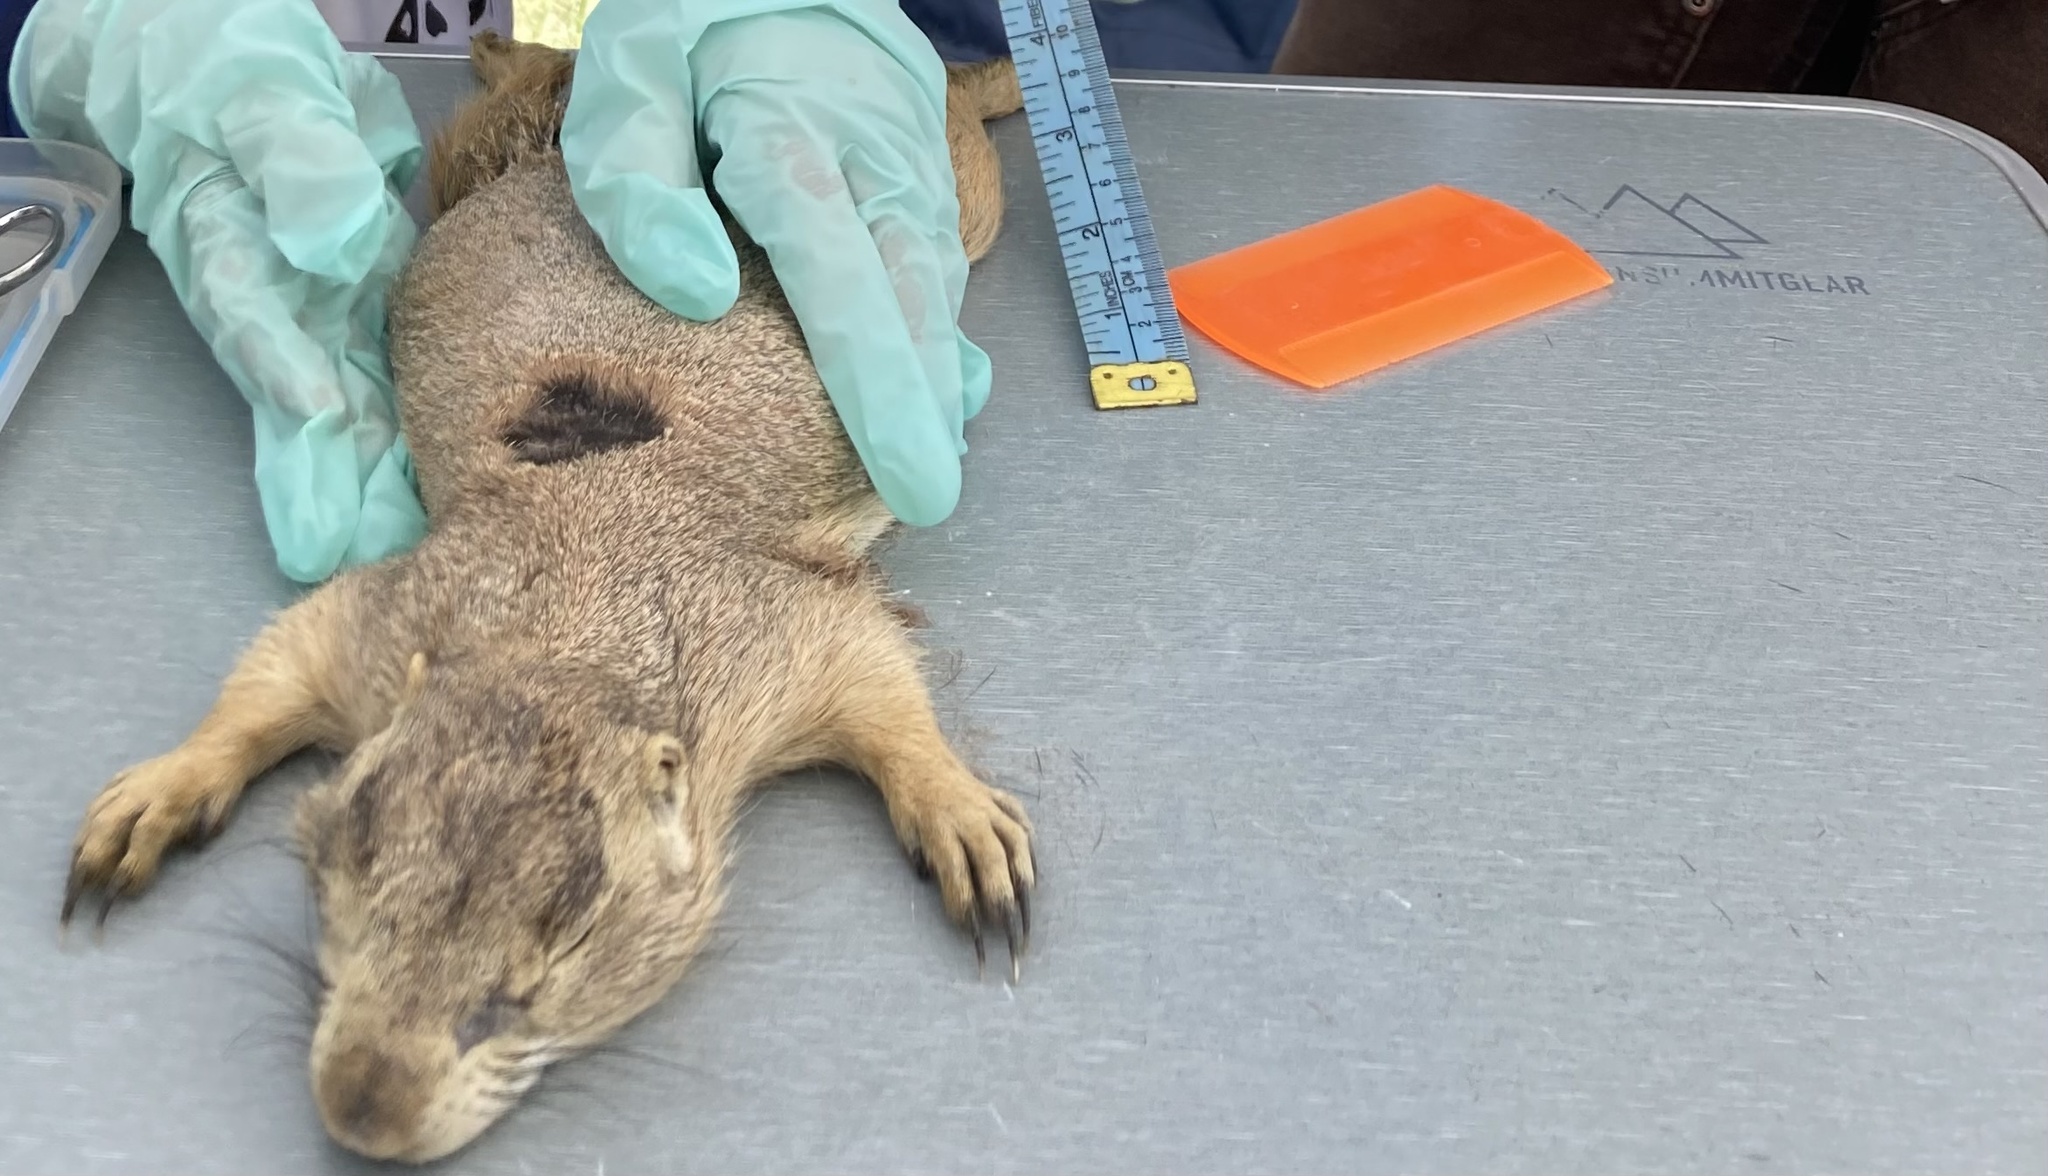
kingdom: Animalia
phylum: Chordata
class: Mammalia
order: Rodentia
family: Sciuridae
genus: Cynomys
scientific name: Cynomys gunnisoni
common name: Gunnison's prairie dog
